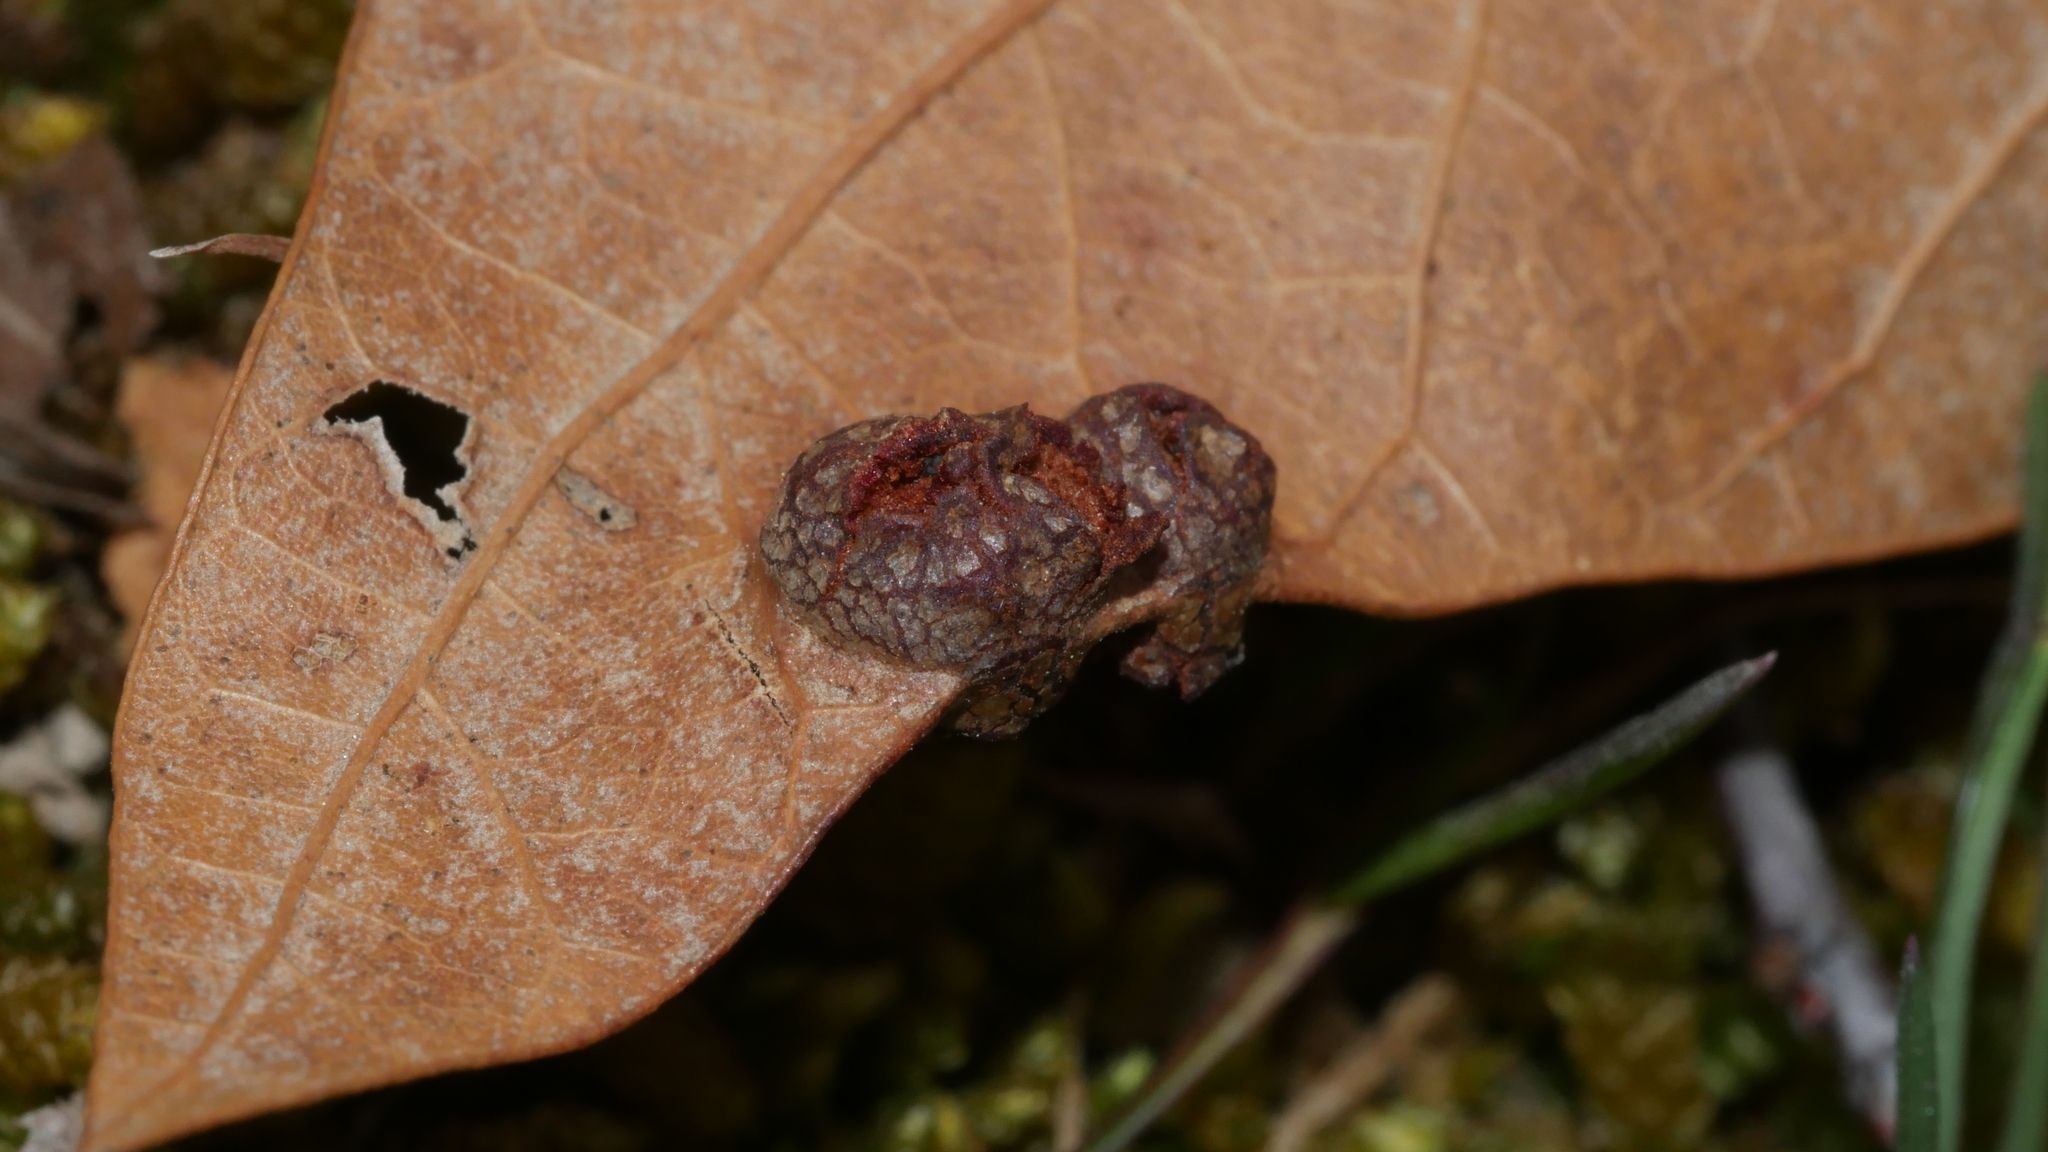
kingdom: Animalia
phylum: Arthropoda
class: Insecta
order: Diptera
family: Cecidomyiidae
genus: Polystepha
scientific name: Polystepha symmetrica
